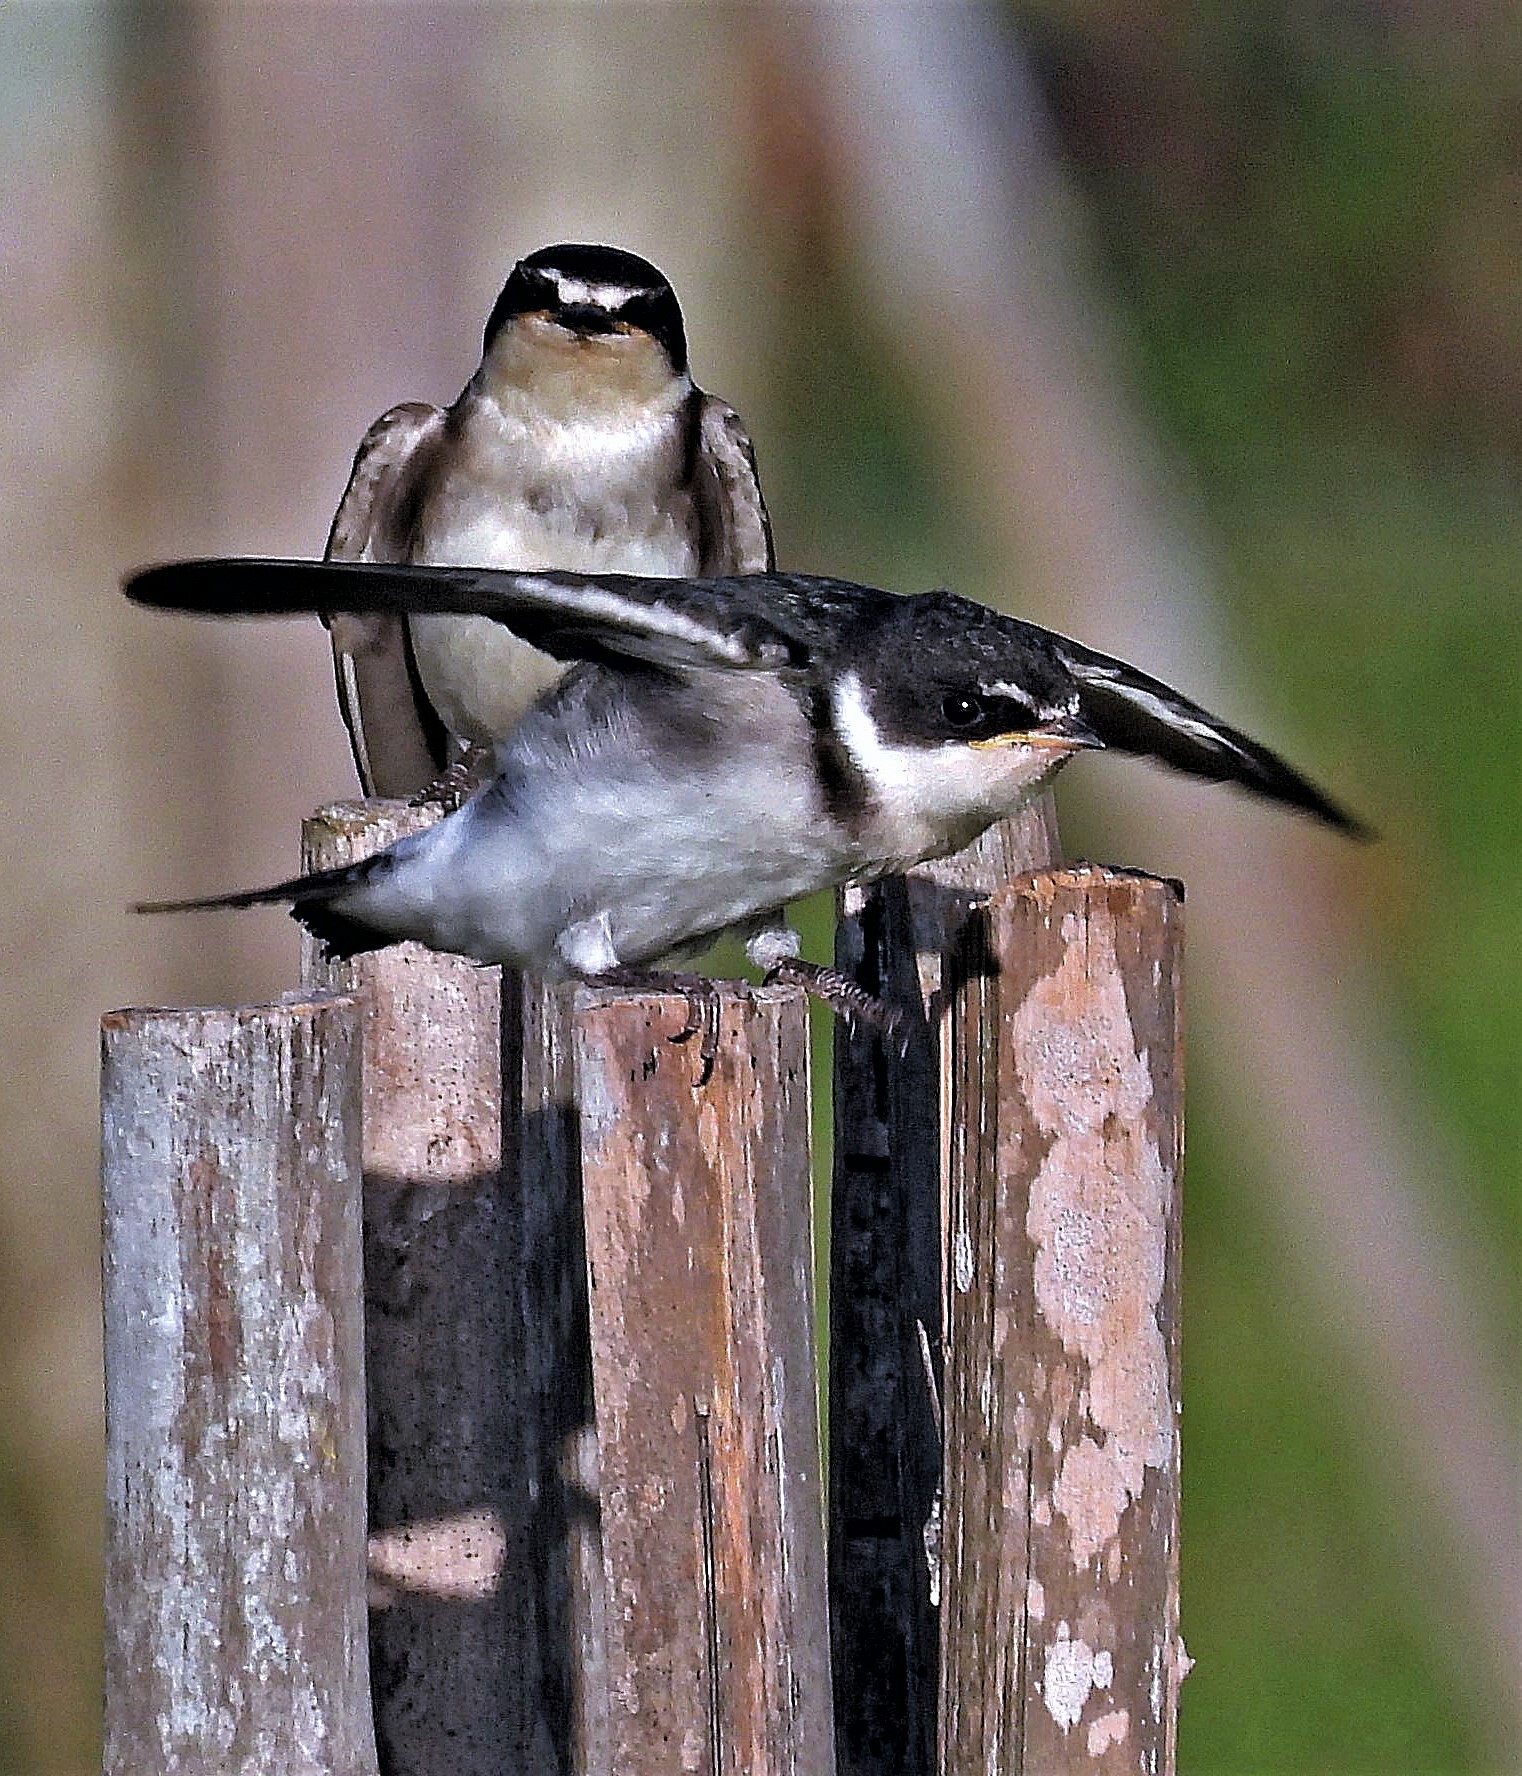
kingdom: Animalia
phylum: Chordata
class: Aves
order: Passeriformes
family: Hirundinidae
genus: Tachycineta
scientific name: Tachycineta leucorrhoa
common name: White-rumped swallow
